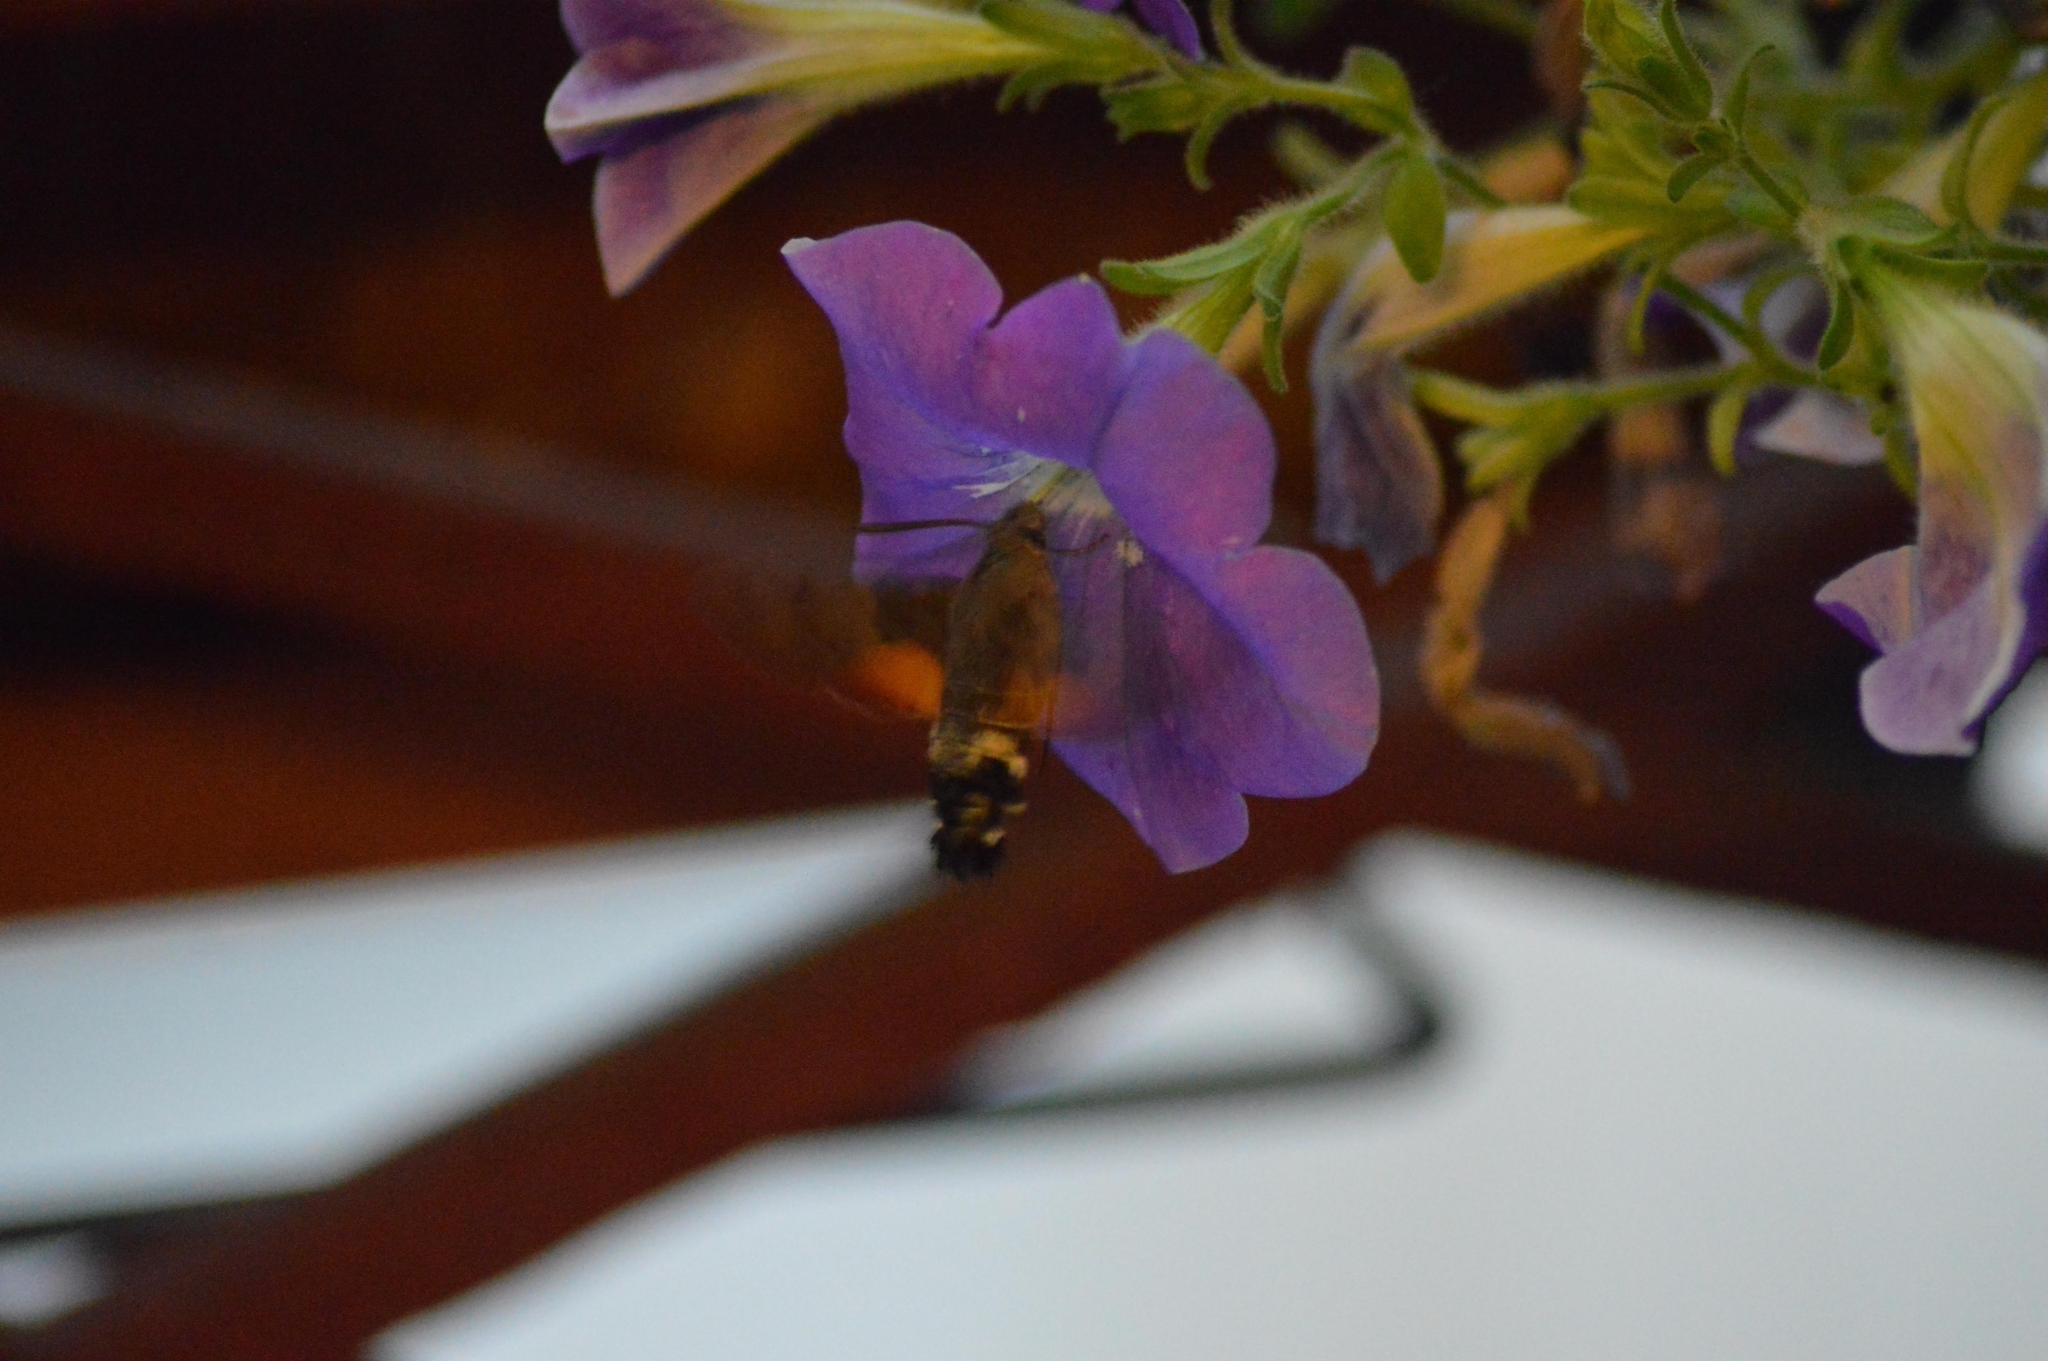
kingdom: Animalia
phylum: Arthropoda
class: Insecta
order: Lepidoptera
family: Sphingidae
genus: Macroglossum
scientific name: Macroglossum stellatarum
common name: Humming-bird hawk-moth
